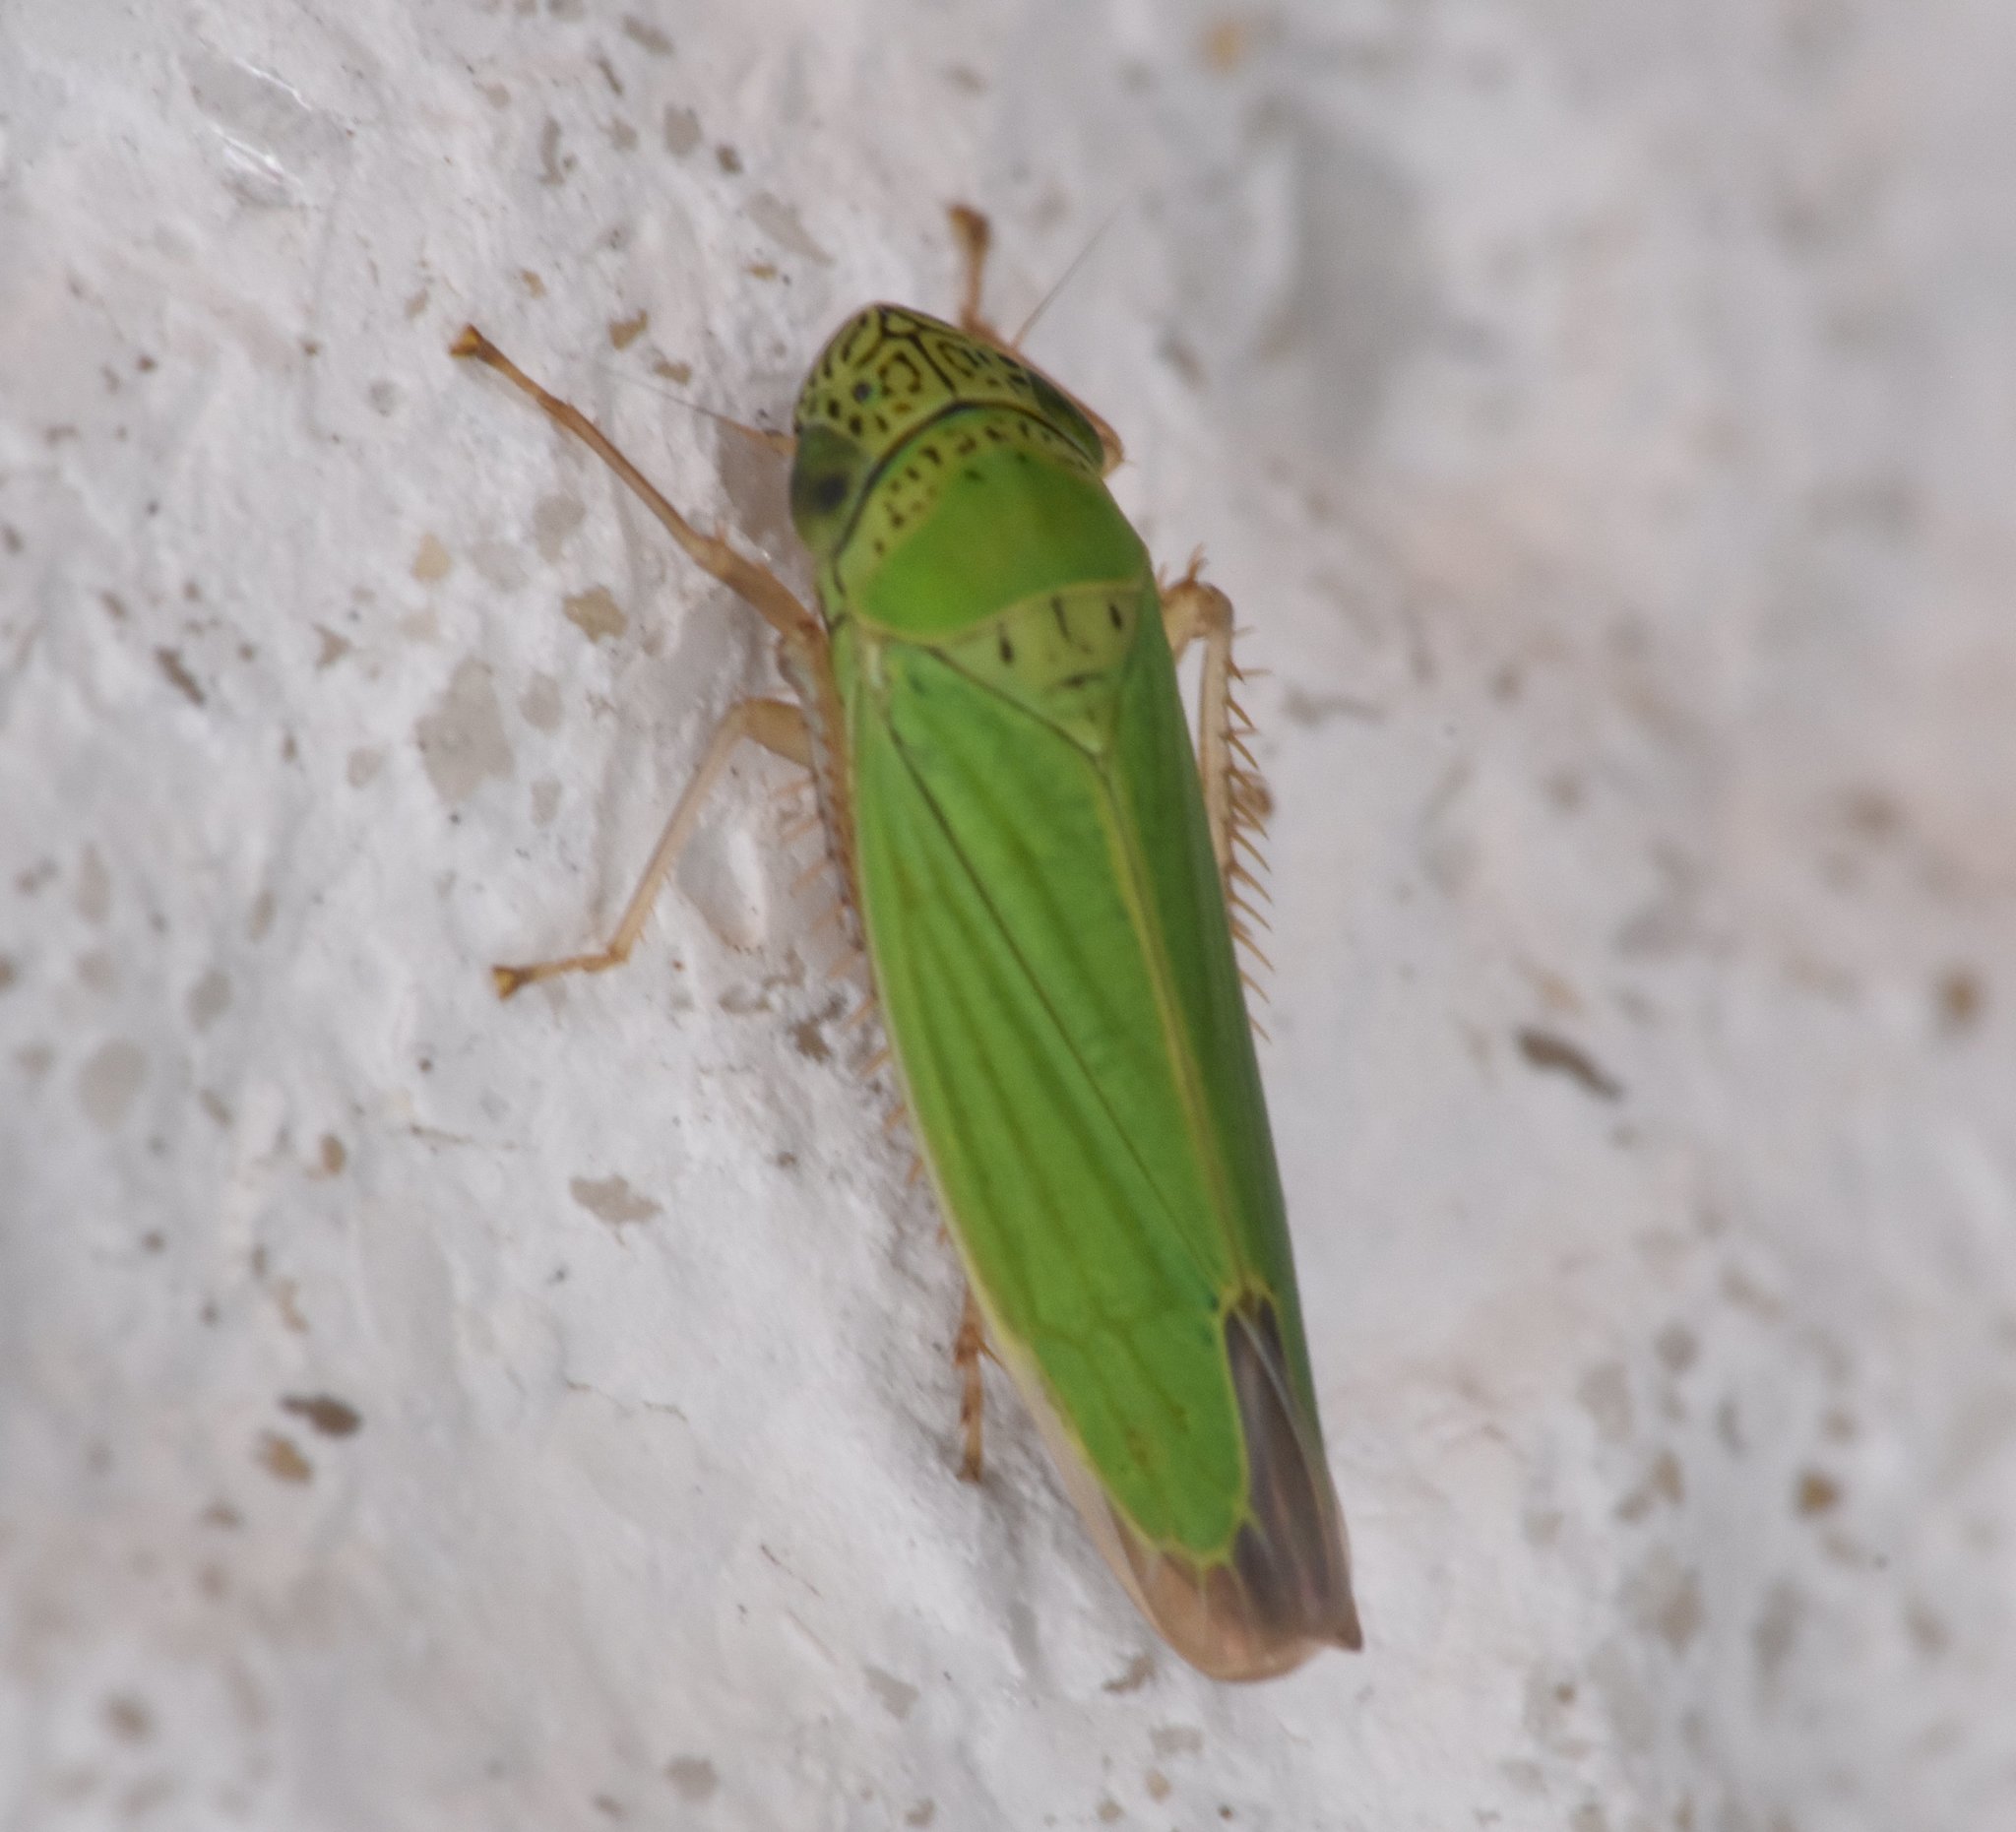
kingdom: Animalia
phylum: Arthropoda
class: Insecta
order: Hemiptera
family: Cicadellidae
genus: Hortensia
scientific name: Hortensia similis
